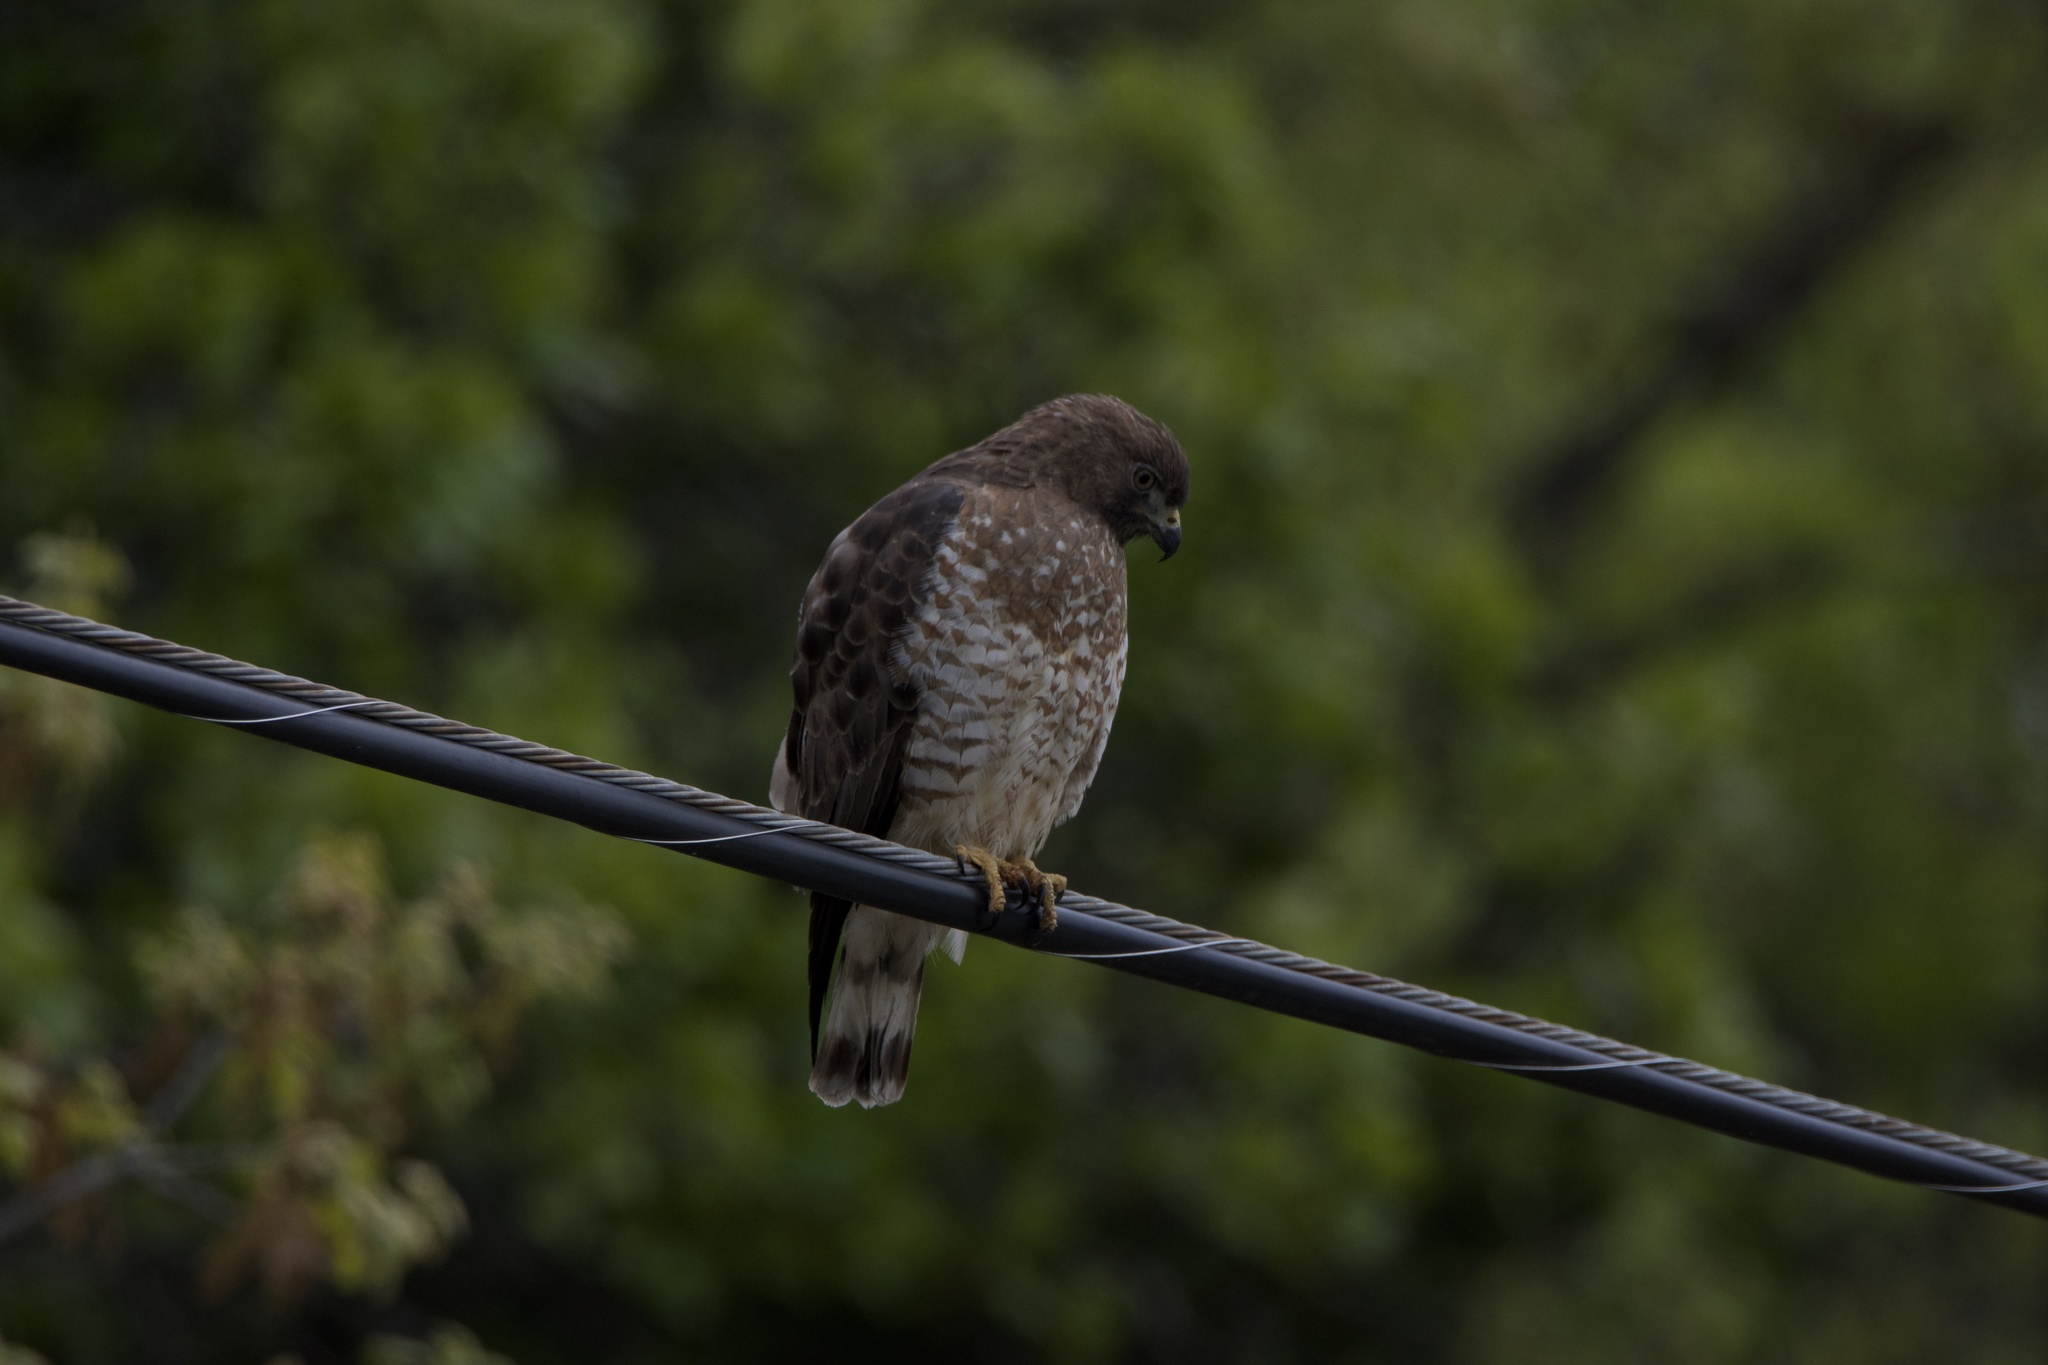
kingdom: Animalia
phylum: Chordata
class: Aves
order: Accipitriformes
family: Accipitridae
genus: Buteo
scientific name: Buteo platypterus
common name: Broad-winged hawk
